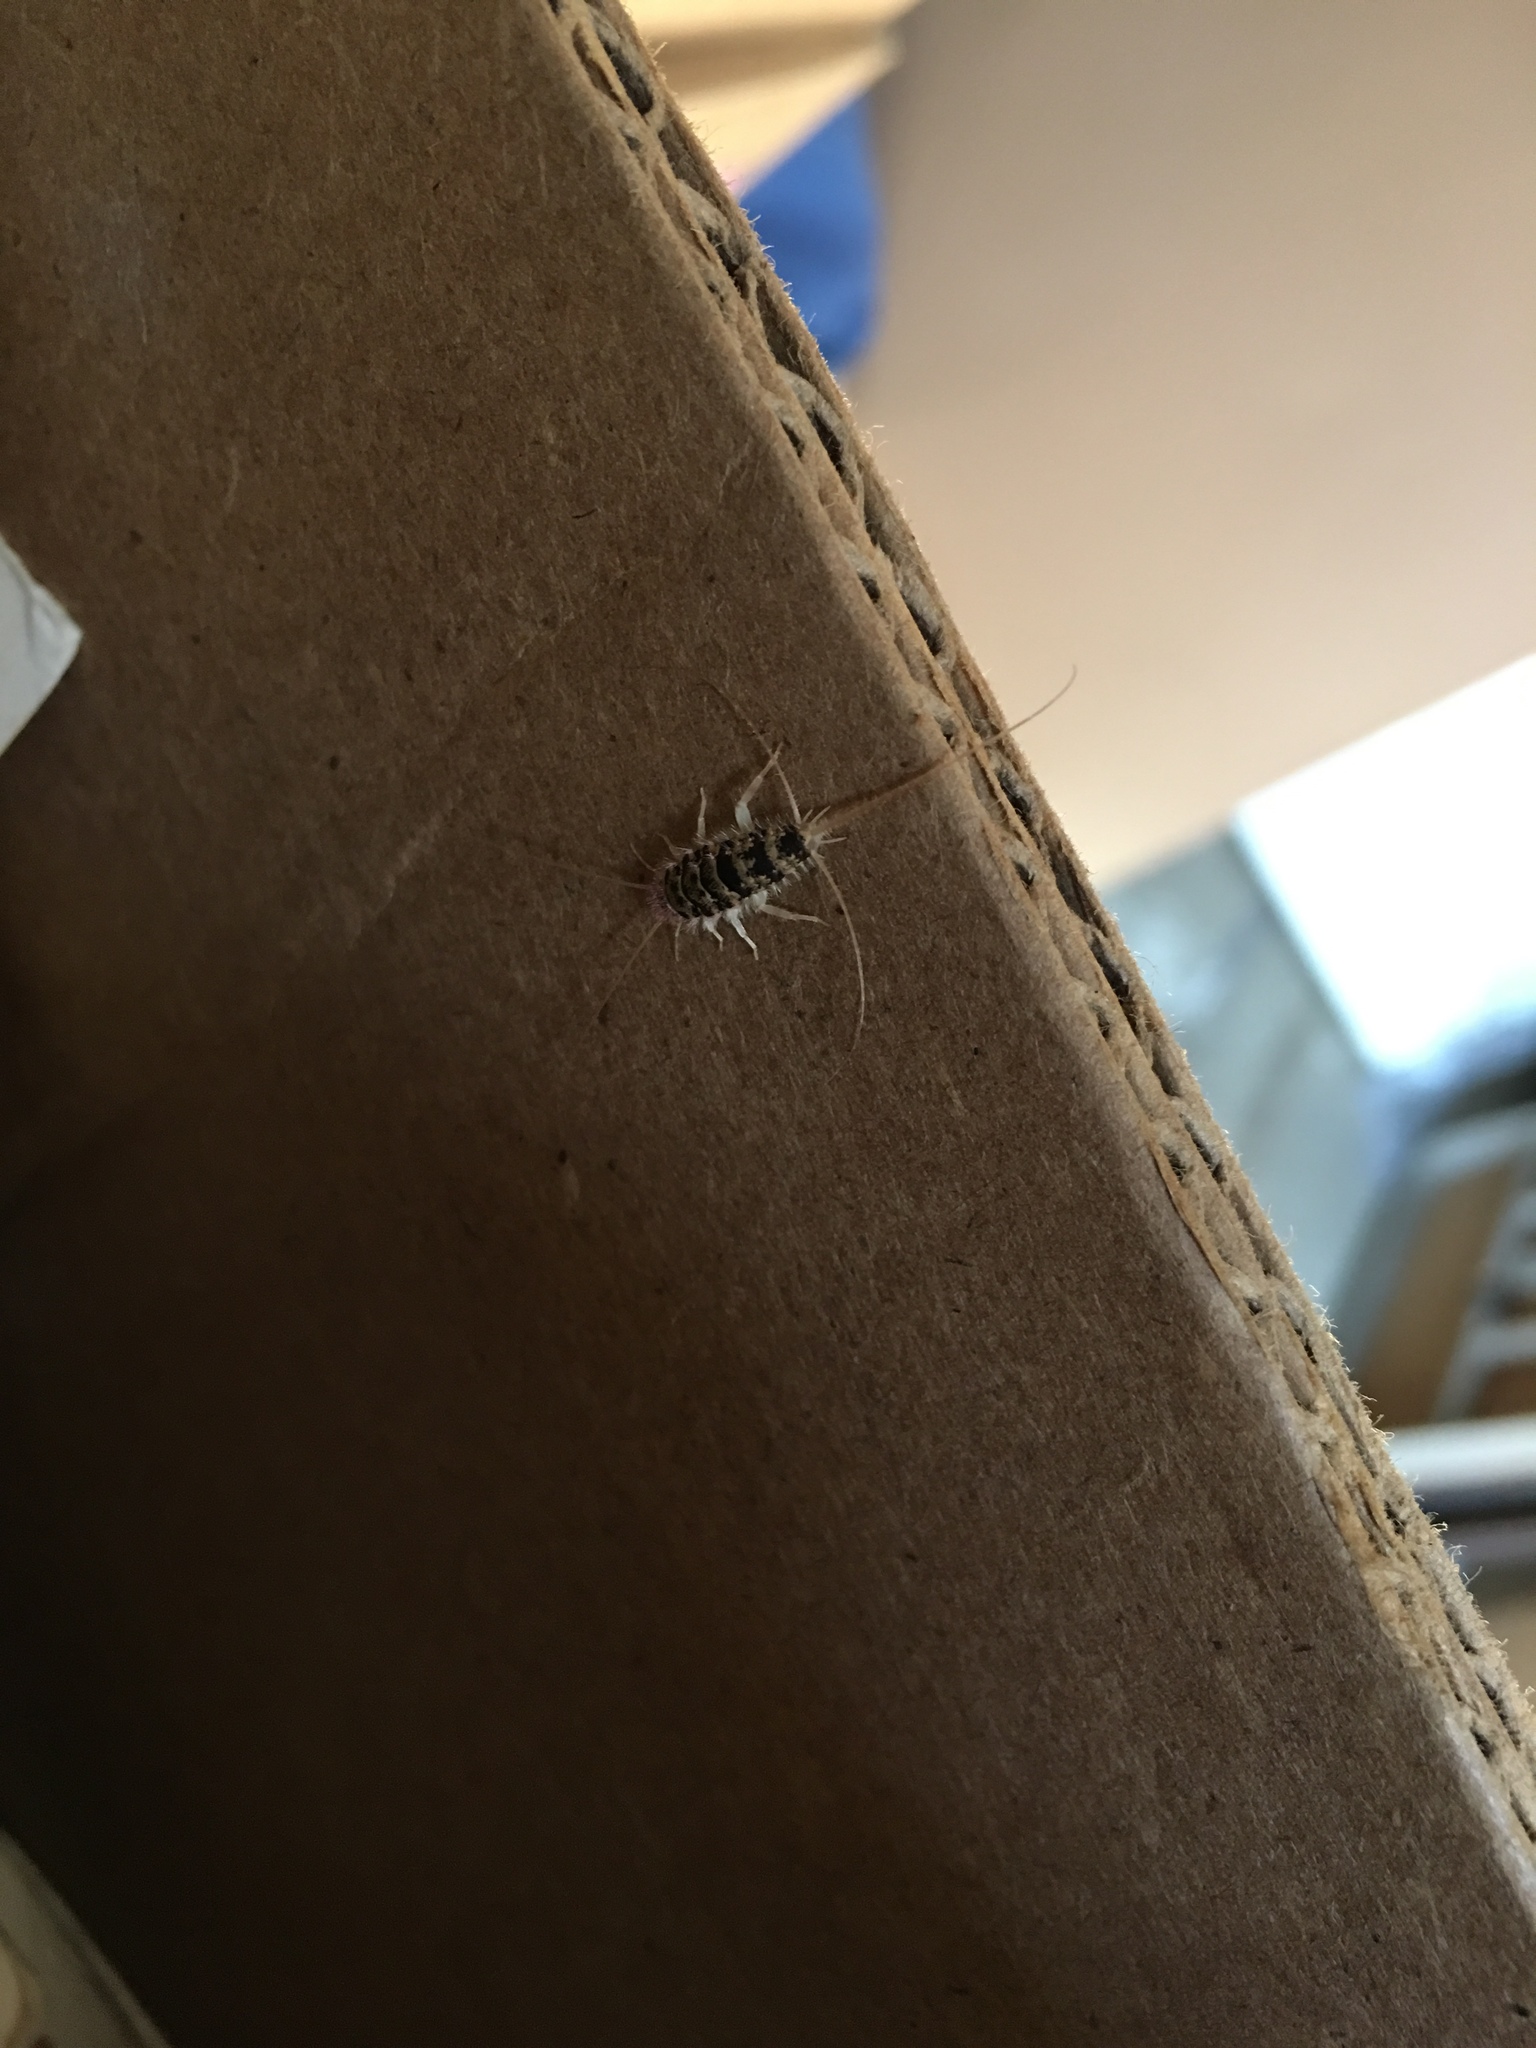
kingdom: Animalia
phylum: Arthropoda
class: Insecta
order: Zygentoma
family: Lepismatidae
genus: Thermobia
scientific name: Thermobia domestica
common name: Firebrat
